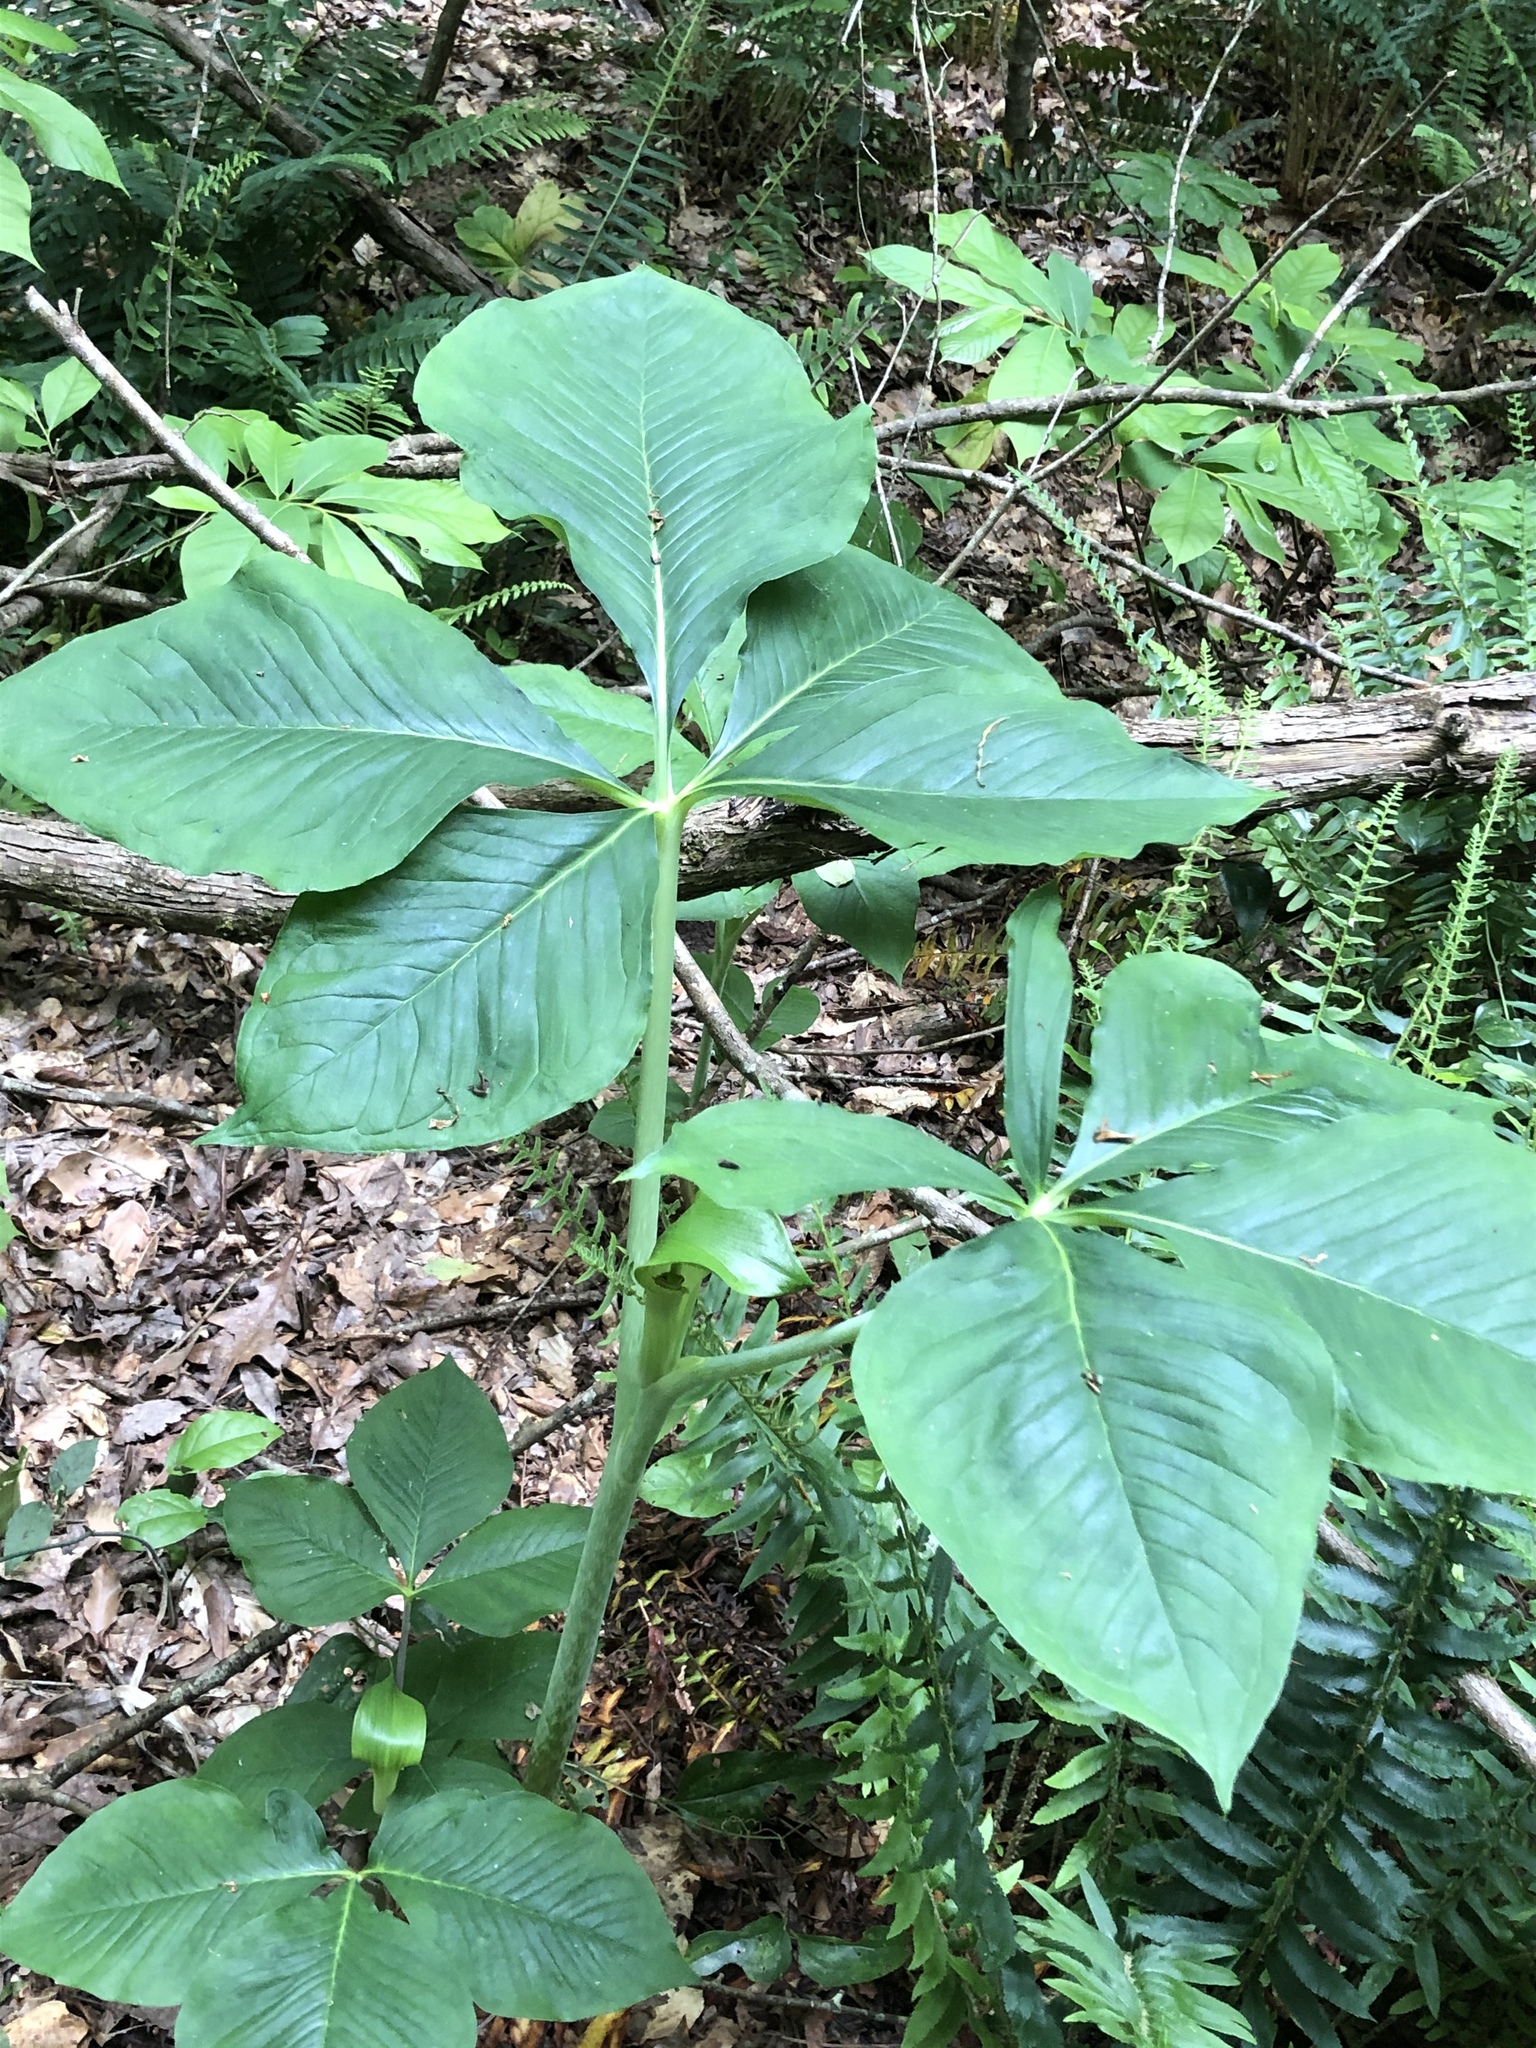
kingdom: Plantae
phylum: Tracheophyta
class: Liliopsida
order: Alismatales
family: Araceae
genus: Arisaema
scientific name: Arisaema quinatum
